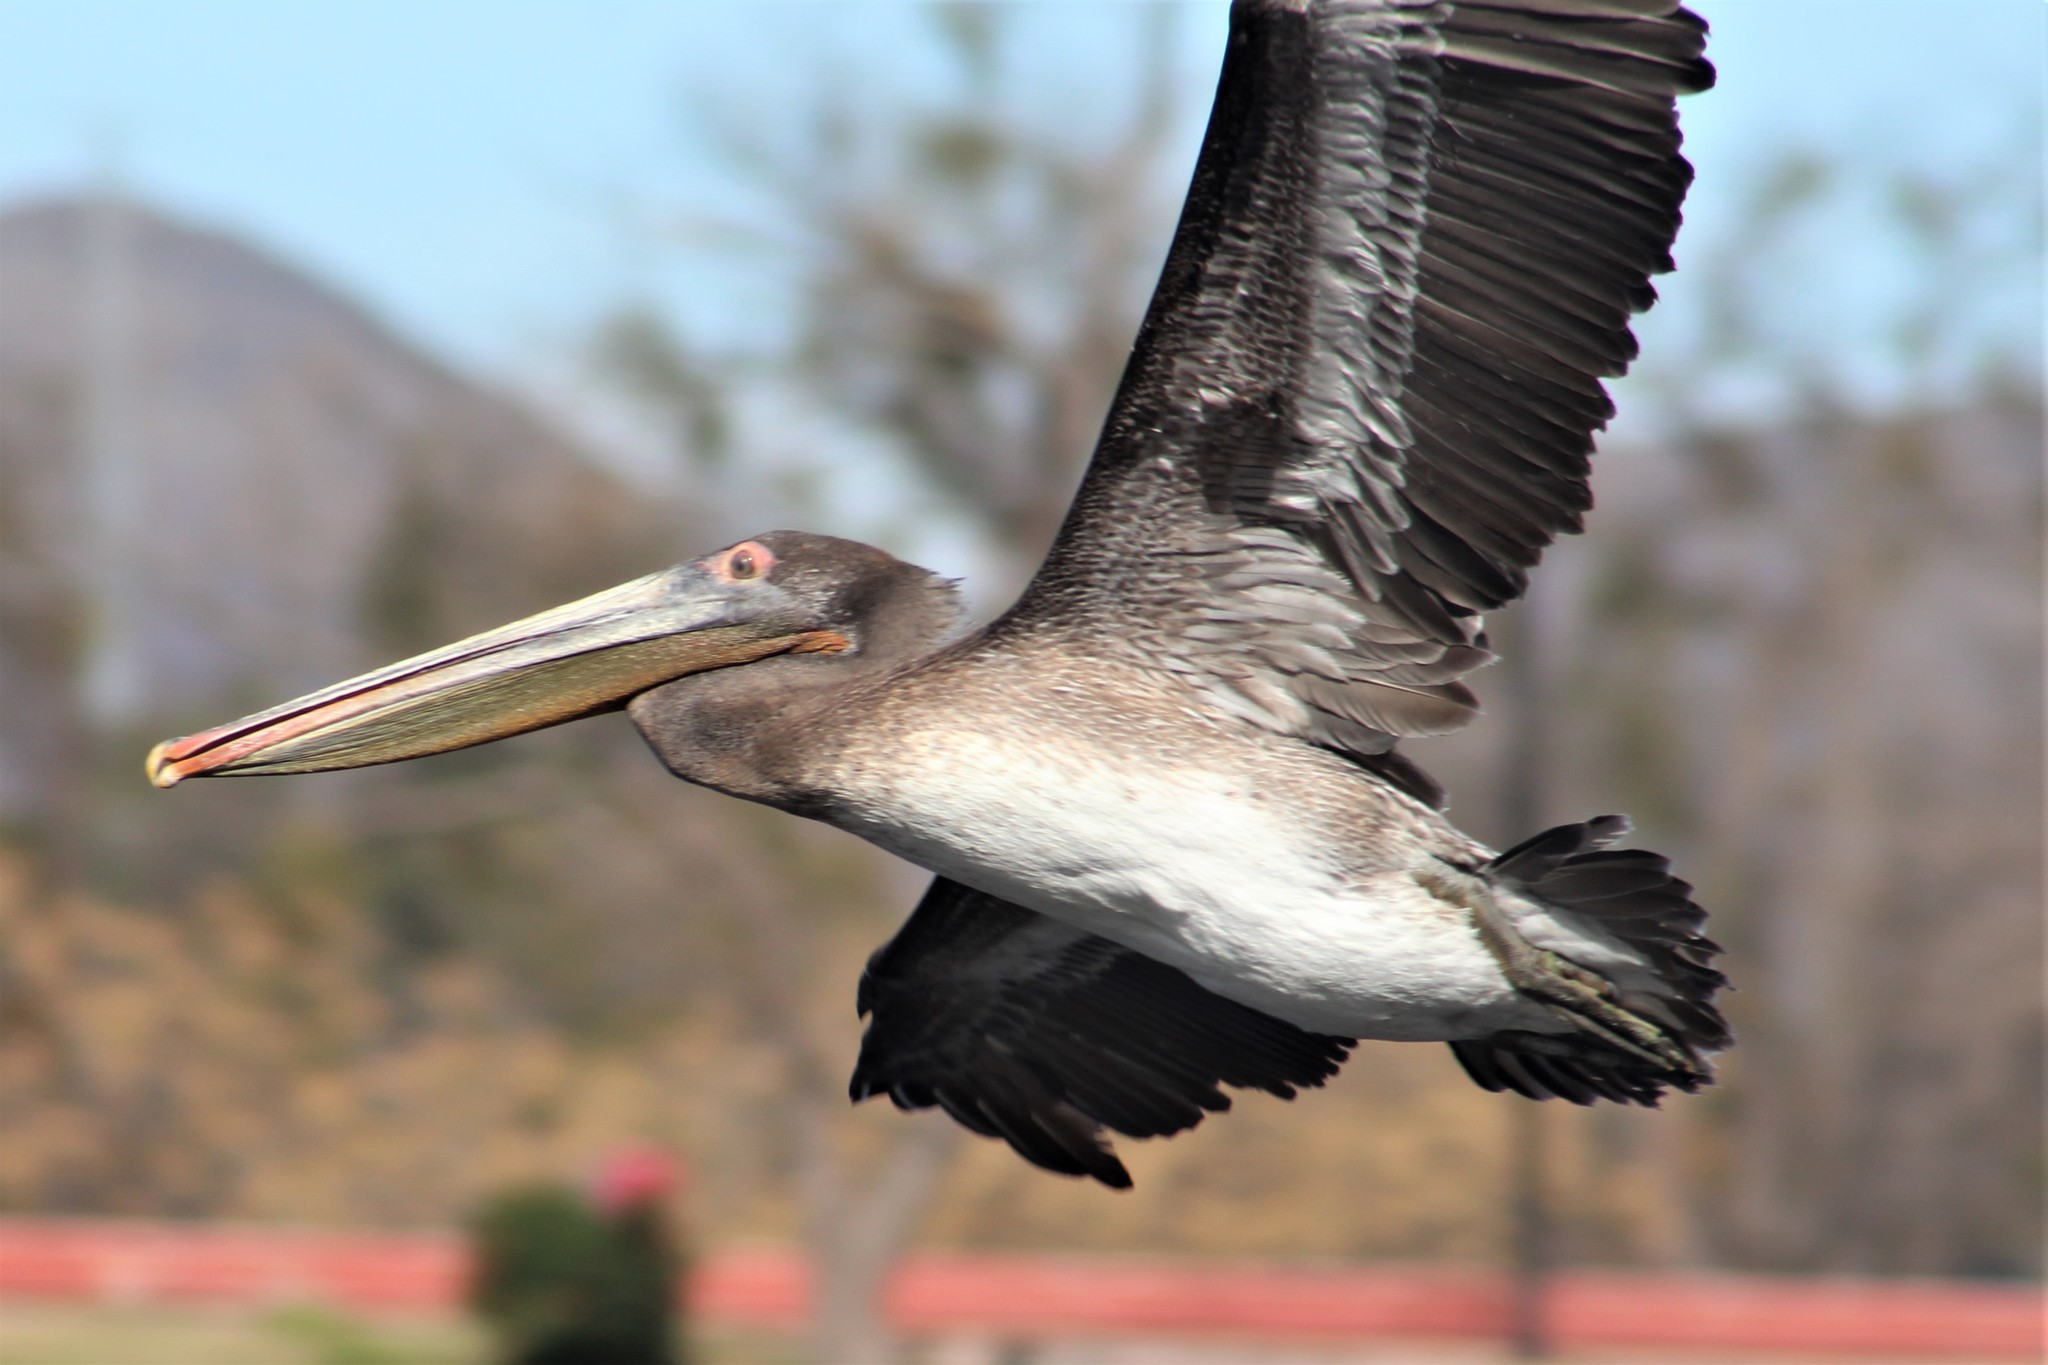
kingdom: Animalia
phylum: Chordata
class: Aves
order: Pelecaniformes
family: Pelecanidae
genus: Pelecanus
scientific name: Pelecanus occidentalis
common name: Brown pelican
